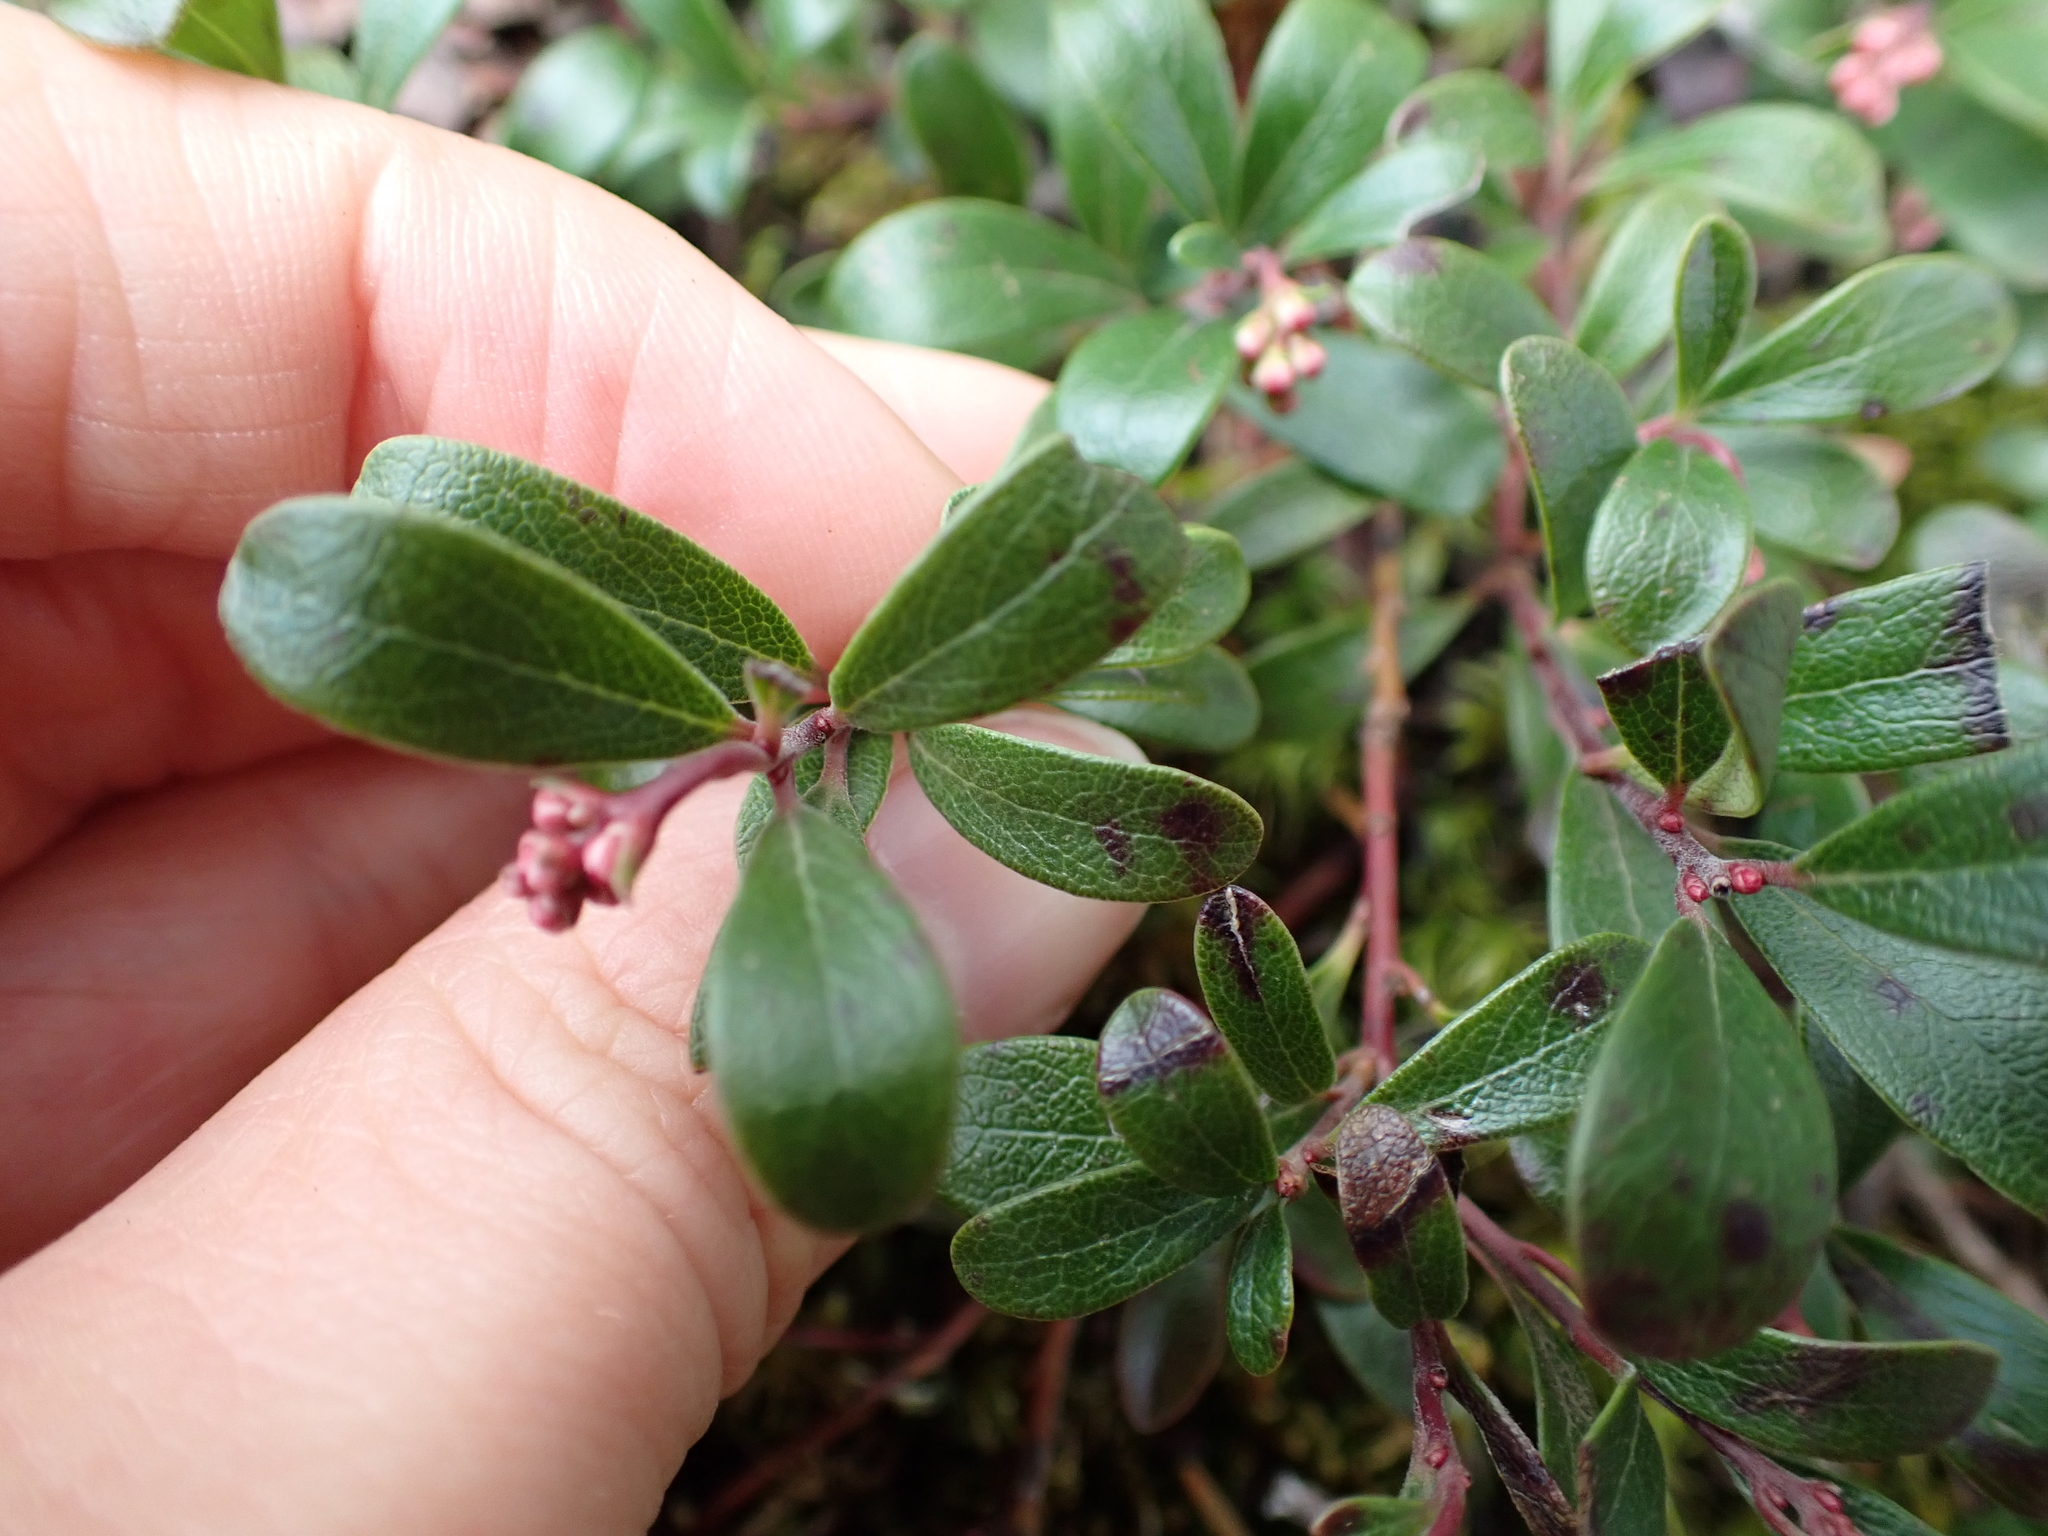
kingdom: Plantae
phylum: Tracheophyta
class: Magnoliopsida
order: Ericales
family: Ericaceae
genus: Arctostaphylos
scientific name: Arctostaphylos uva-ursi
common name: Bearberry
